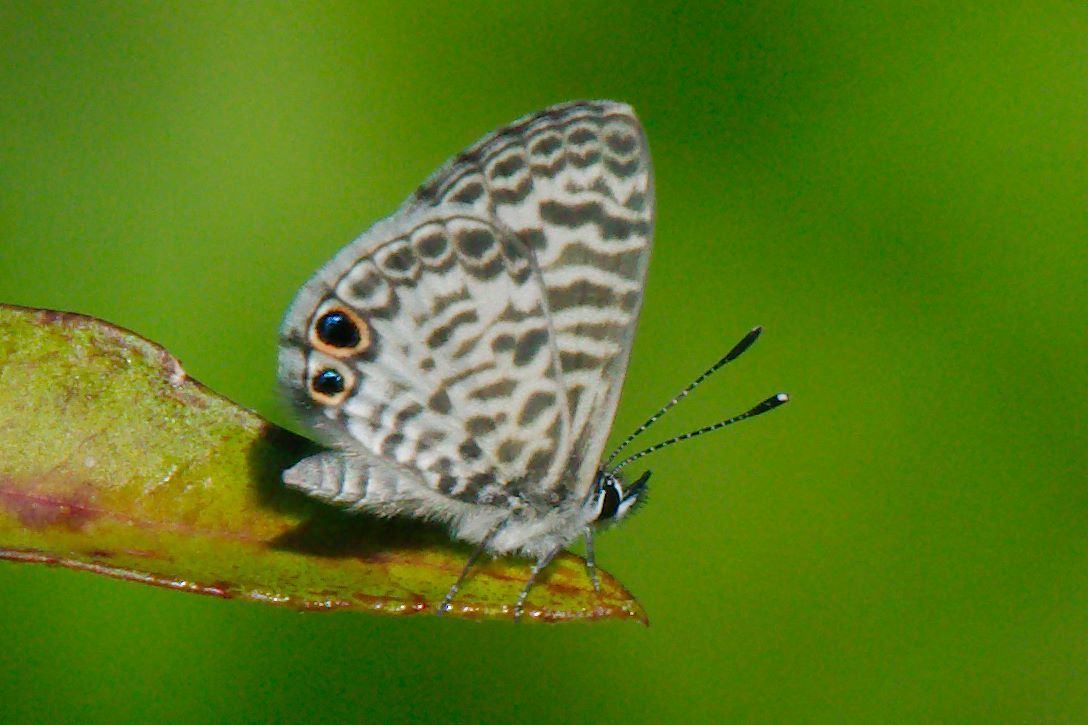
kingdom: Animalia
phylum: Arthropoda
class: Insecta
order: Lepidoptera
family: Lycaenidae
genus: Leptotes
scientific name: Leptotes cassius
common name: Cassius blue
